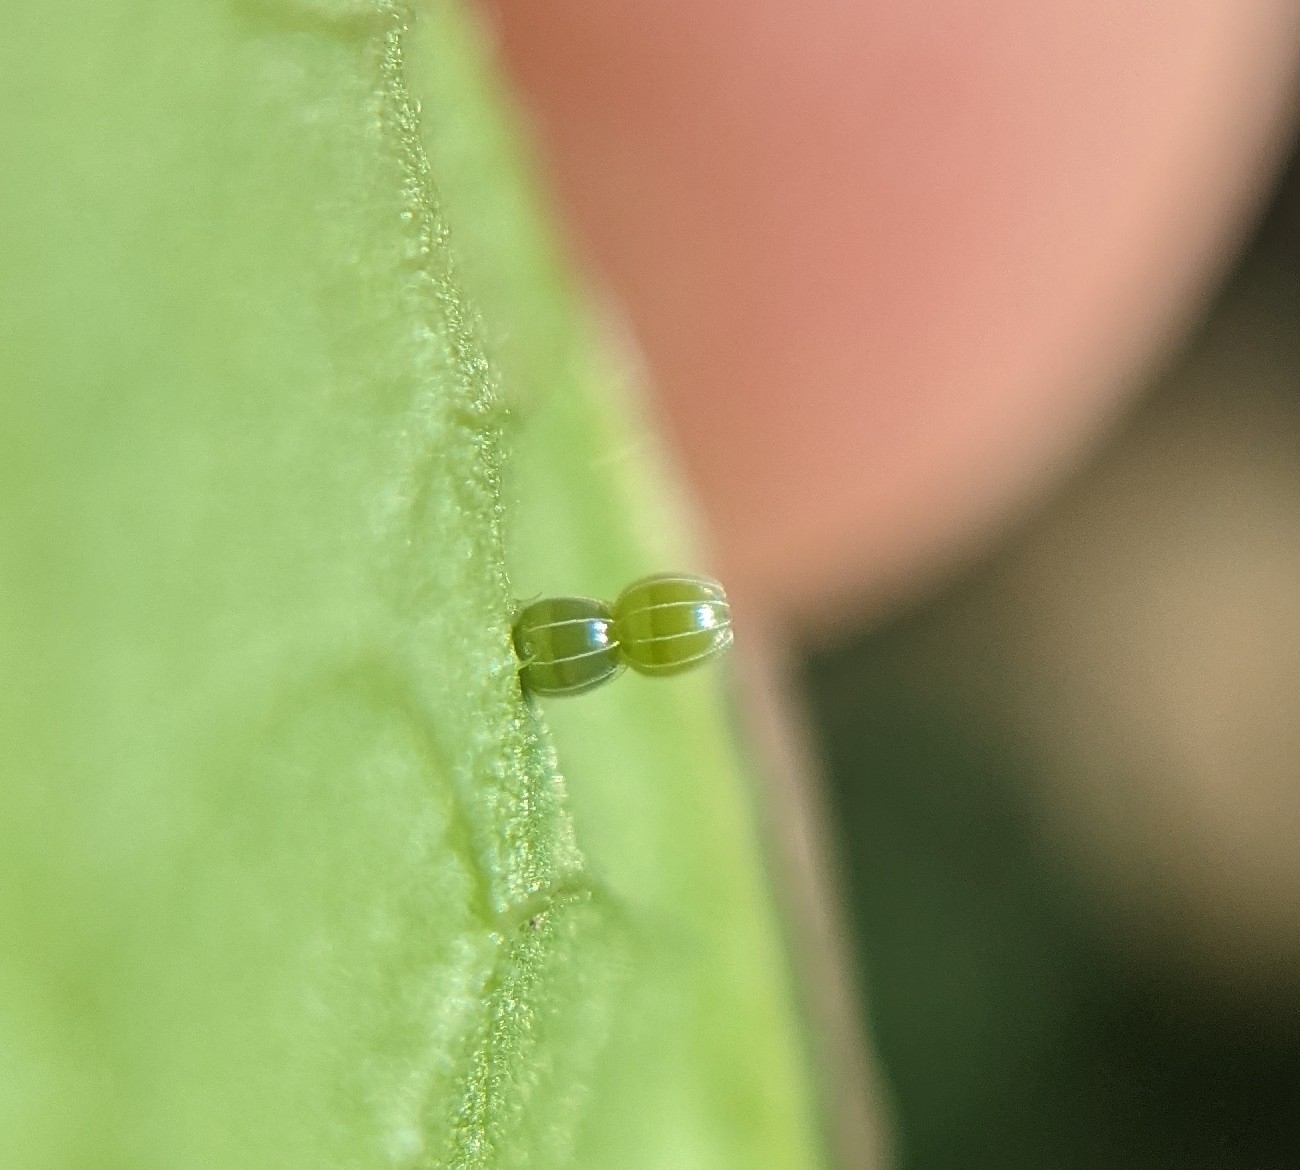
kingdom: Animalia
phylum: Arthropoda
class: Insecta
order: Lepidoptera
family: Nymphalidae
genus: Polygonia
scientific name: Polygonia interrogationis
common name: Question mark
